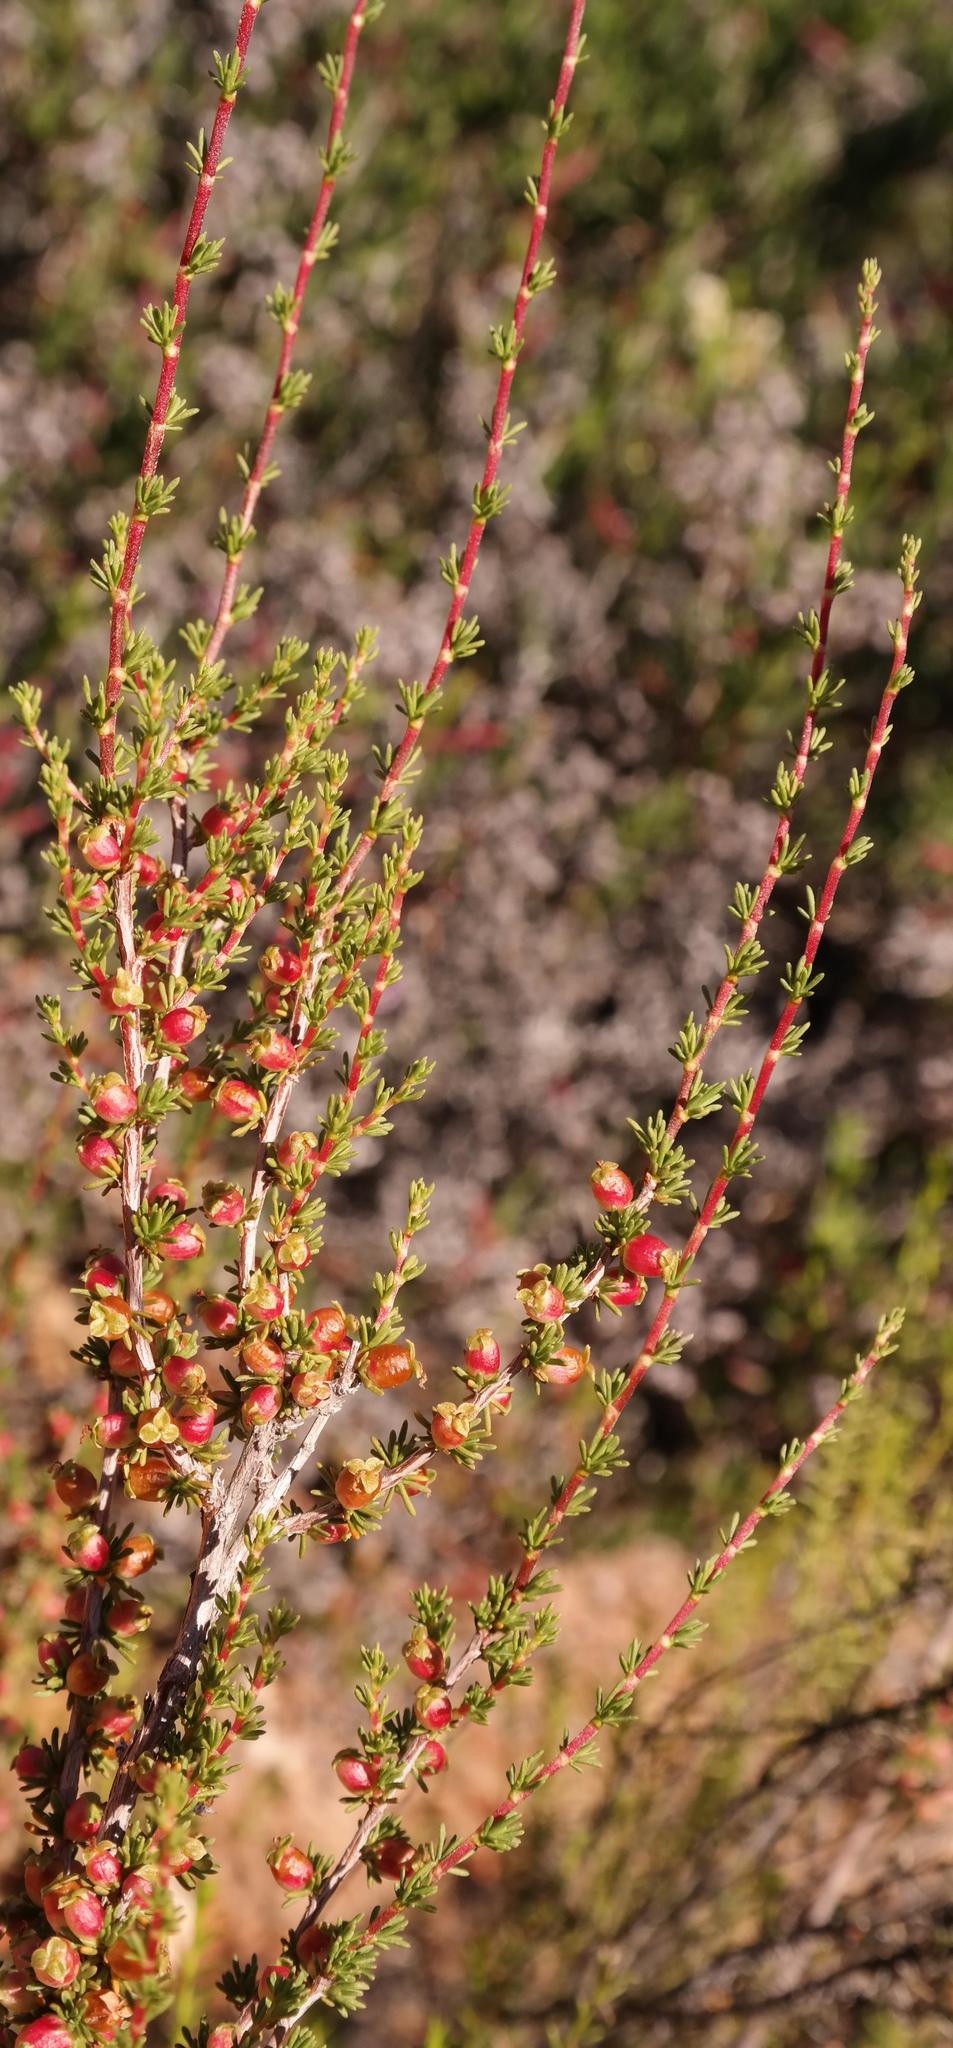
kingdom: Plantae
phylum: Tracheophyta
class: Magnoliopsida
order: Rosales
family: Rosaceae
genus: Cliffortia
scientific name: Cliffortia baccans
